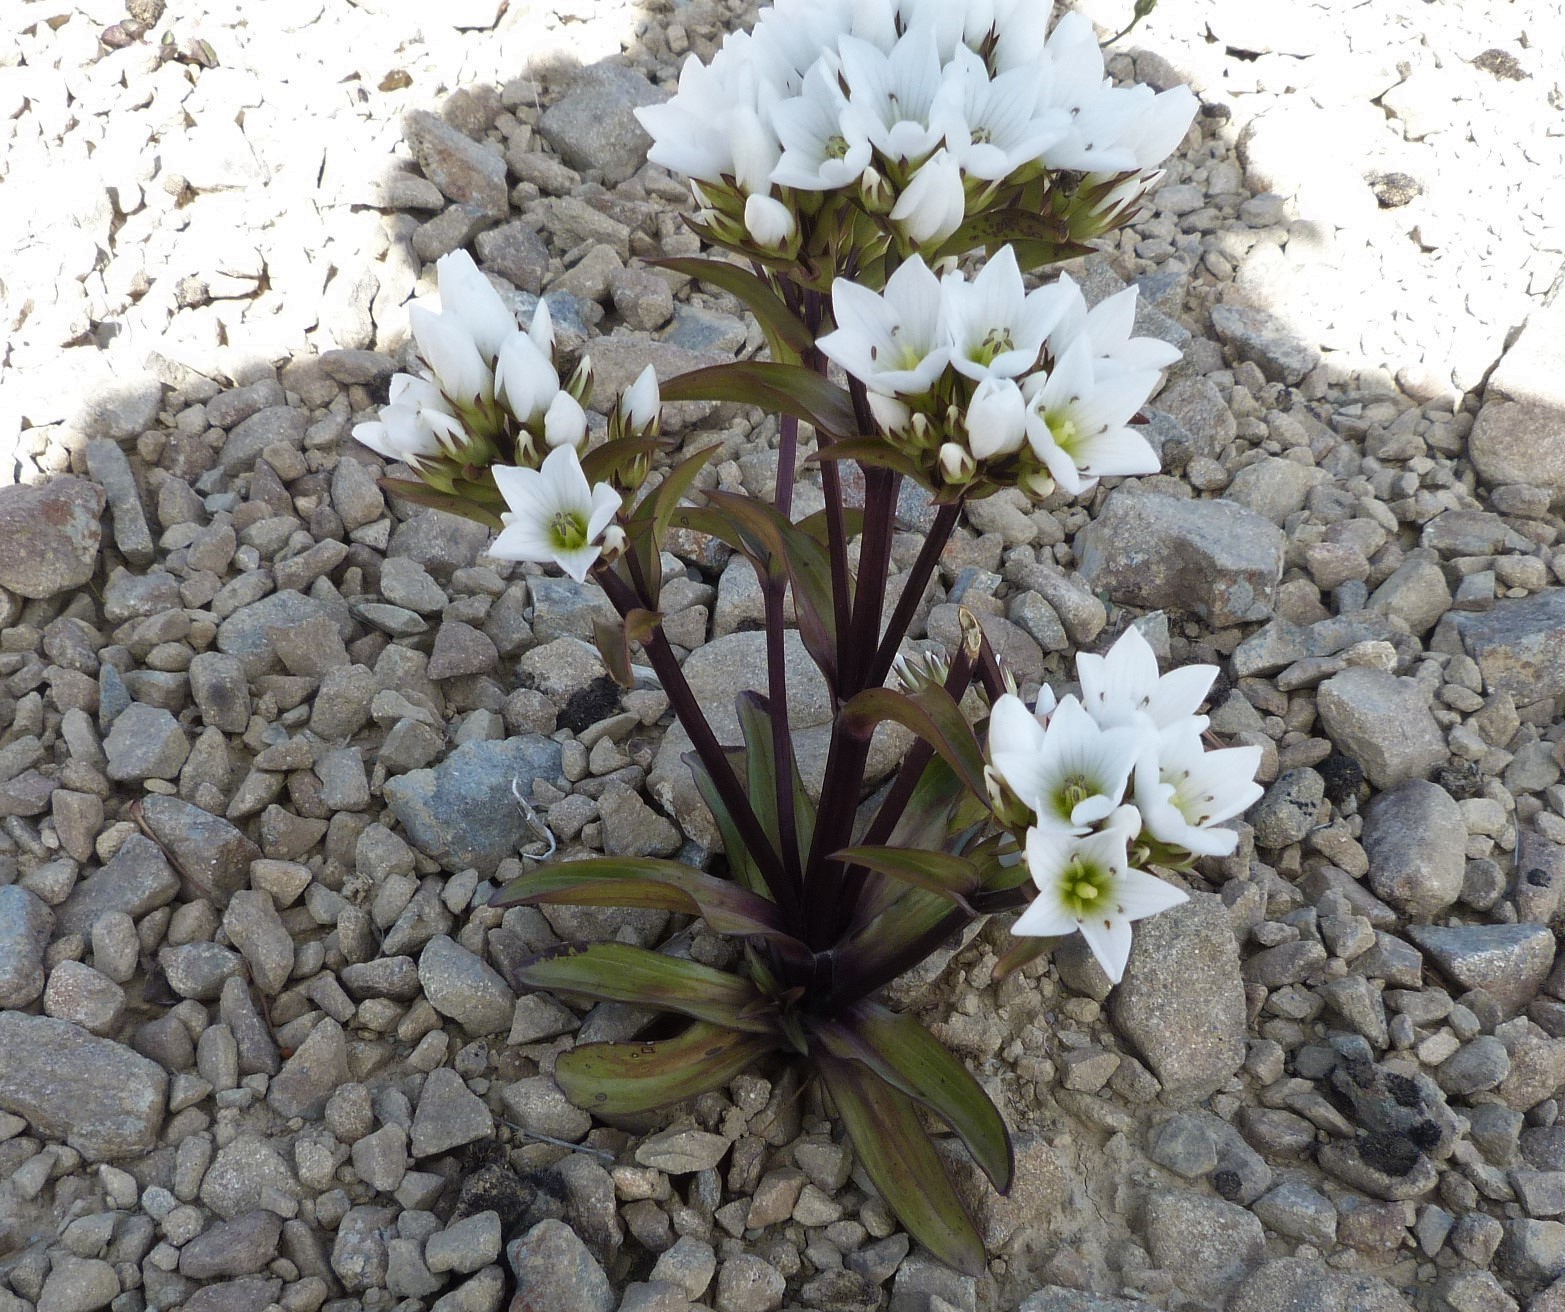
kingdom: Plantae
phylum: Tracheophyta
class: Magnoliopsida
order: Gentianales
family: Gentianaceae
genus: Gentianella
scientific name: Gentianella corymbifera
